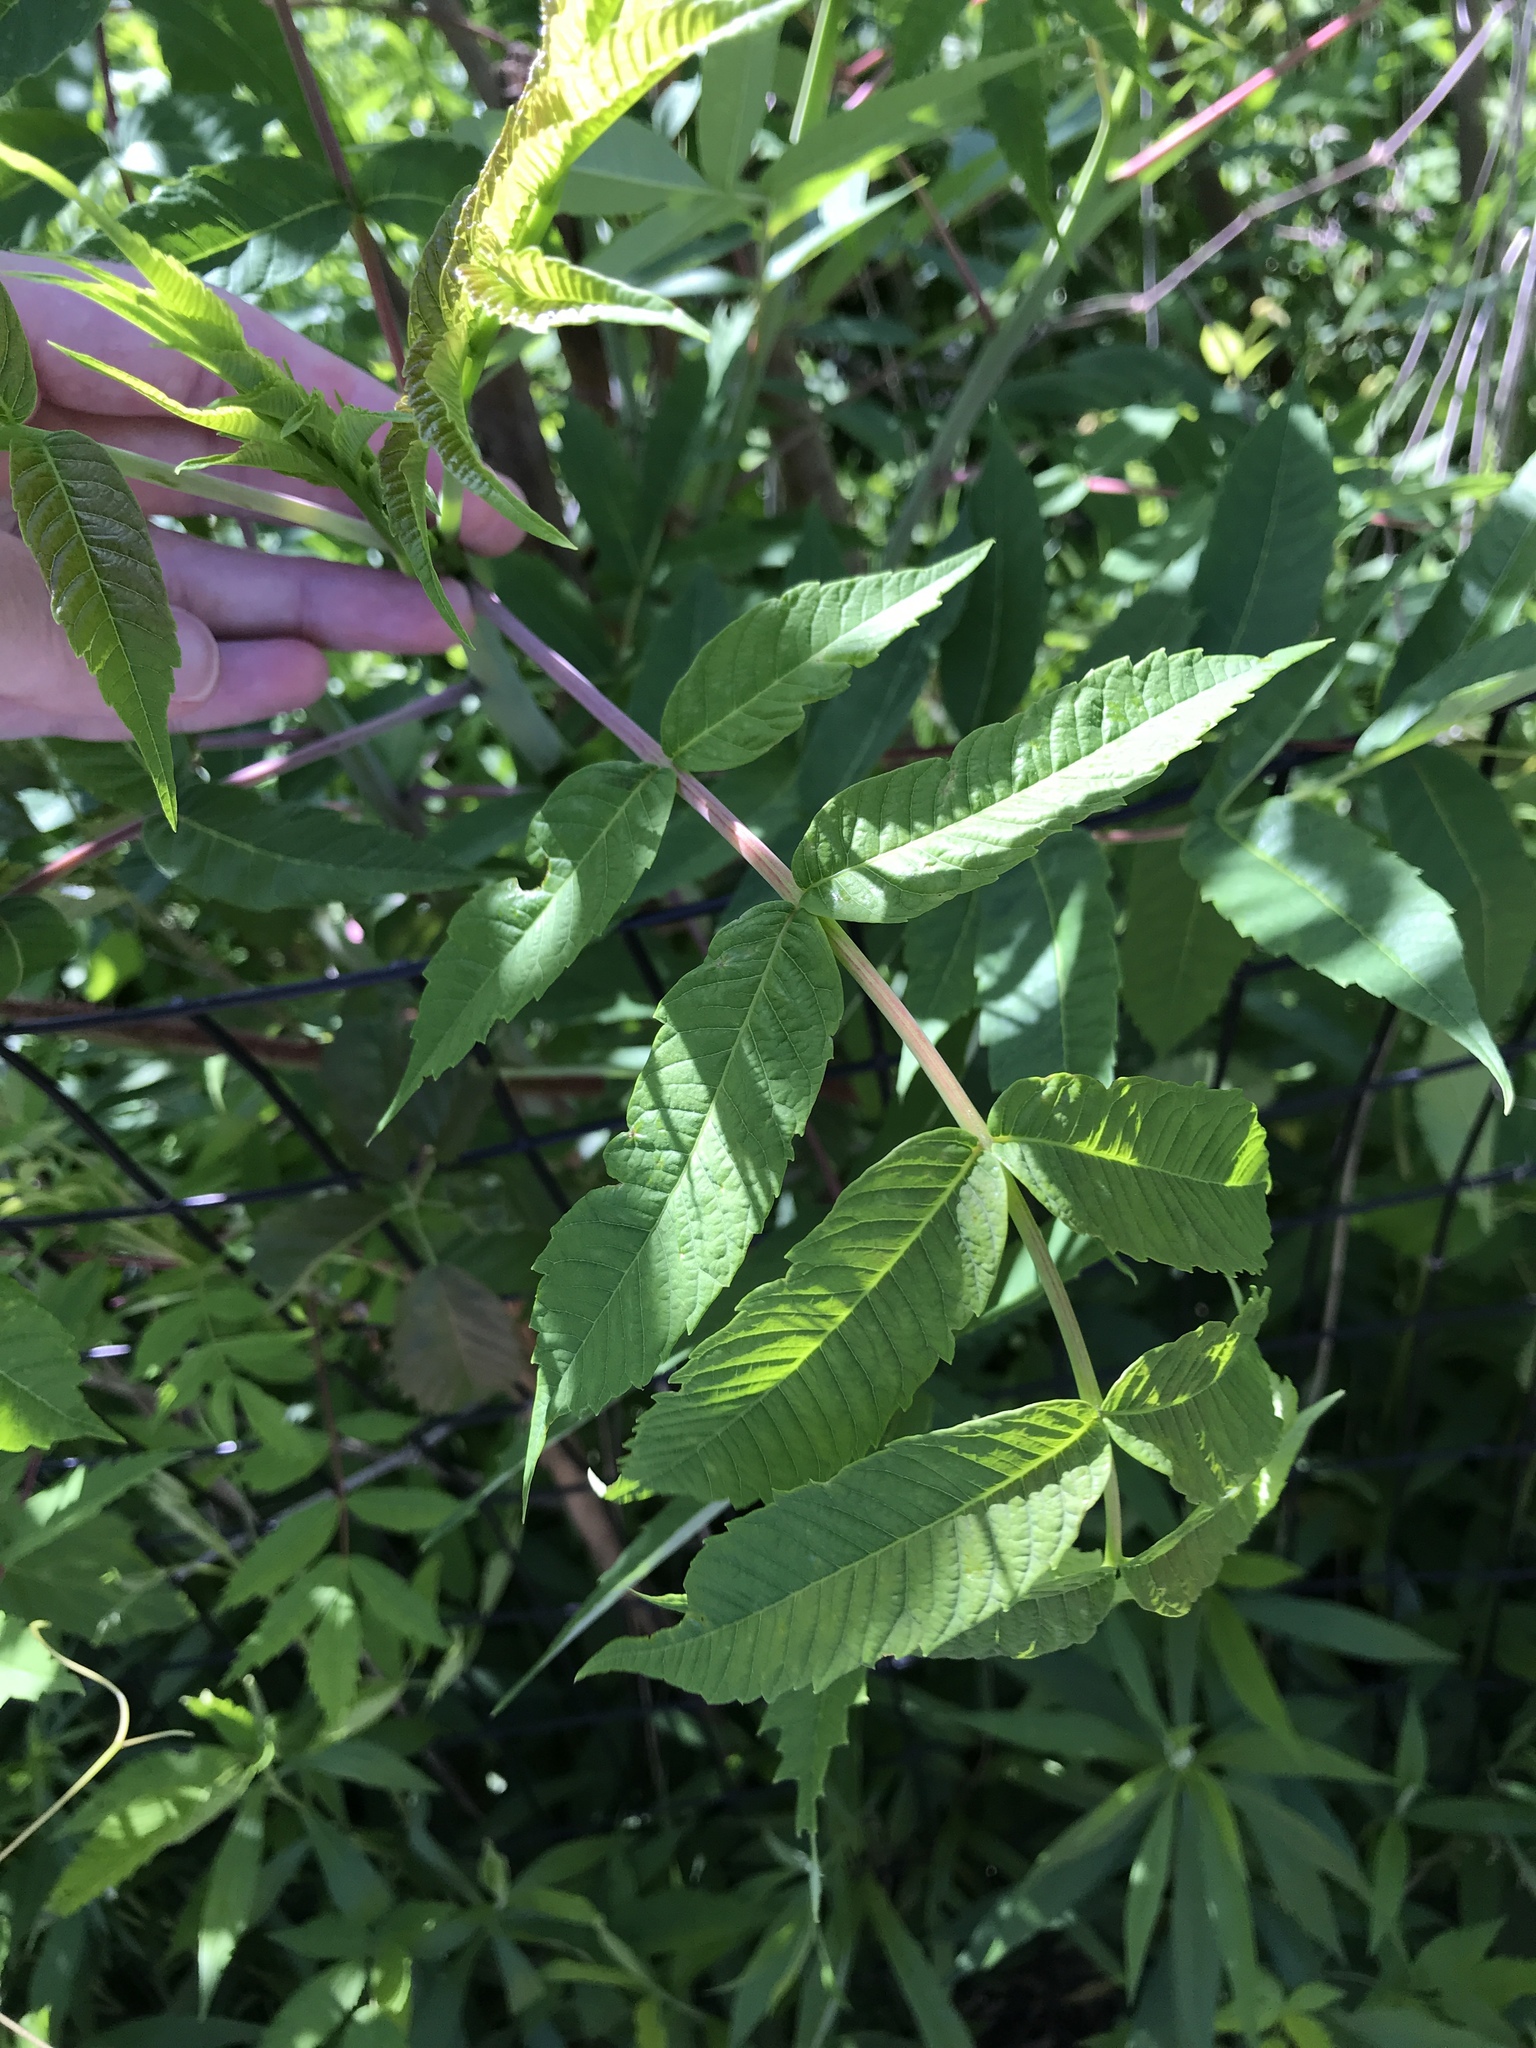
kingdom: Plantae
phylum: Tracheophyta
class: Magnoliopsida
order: Sapindales
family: Anacardiaceae
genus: Rhus
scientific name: Rhus glabra
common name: Scarlet sumac
